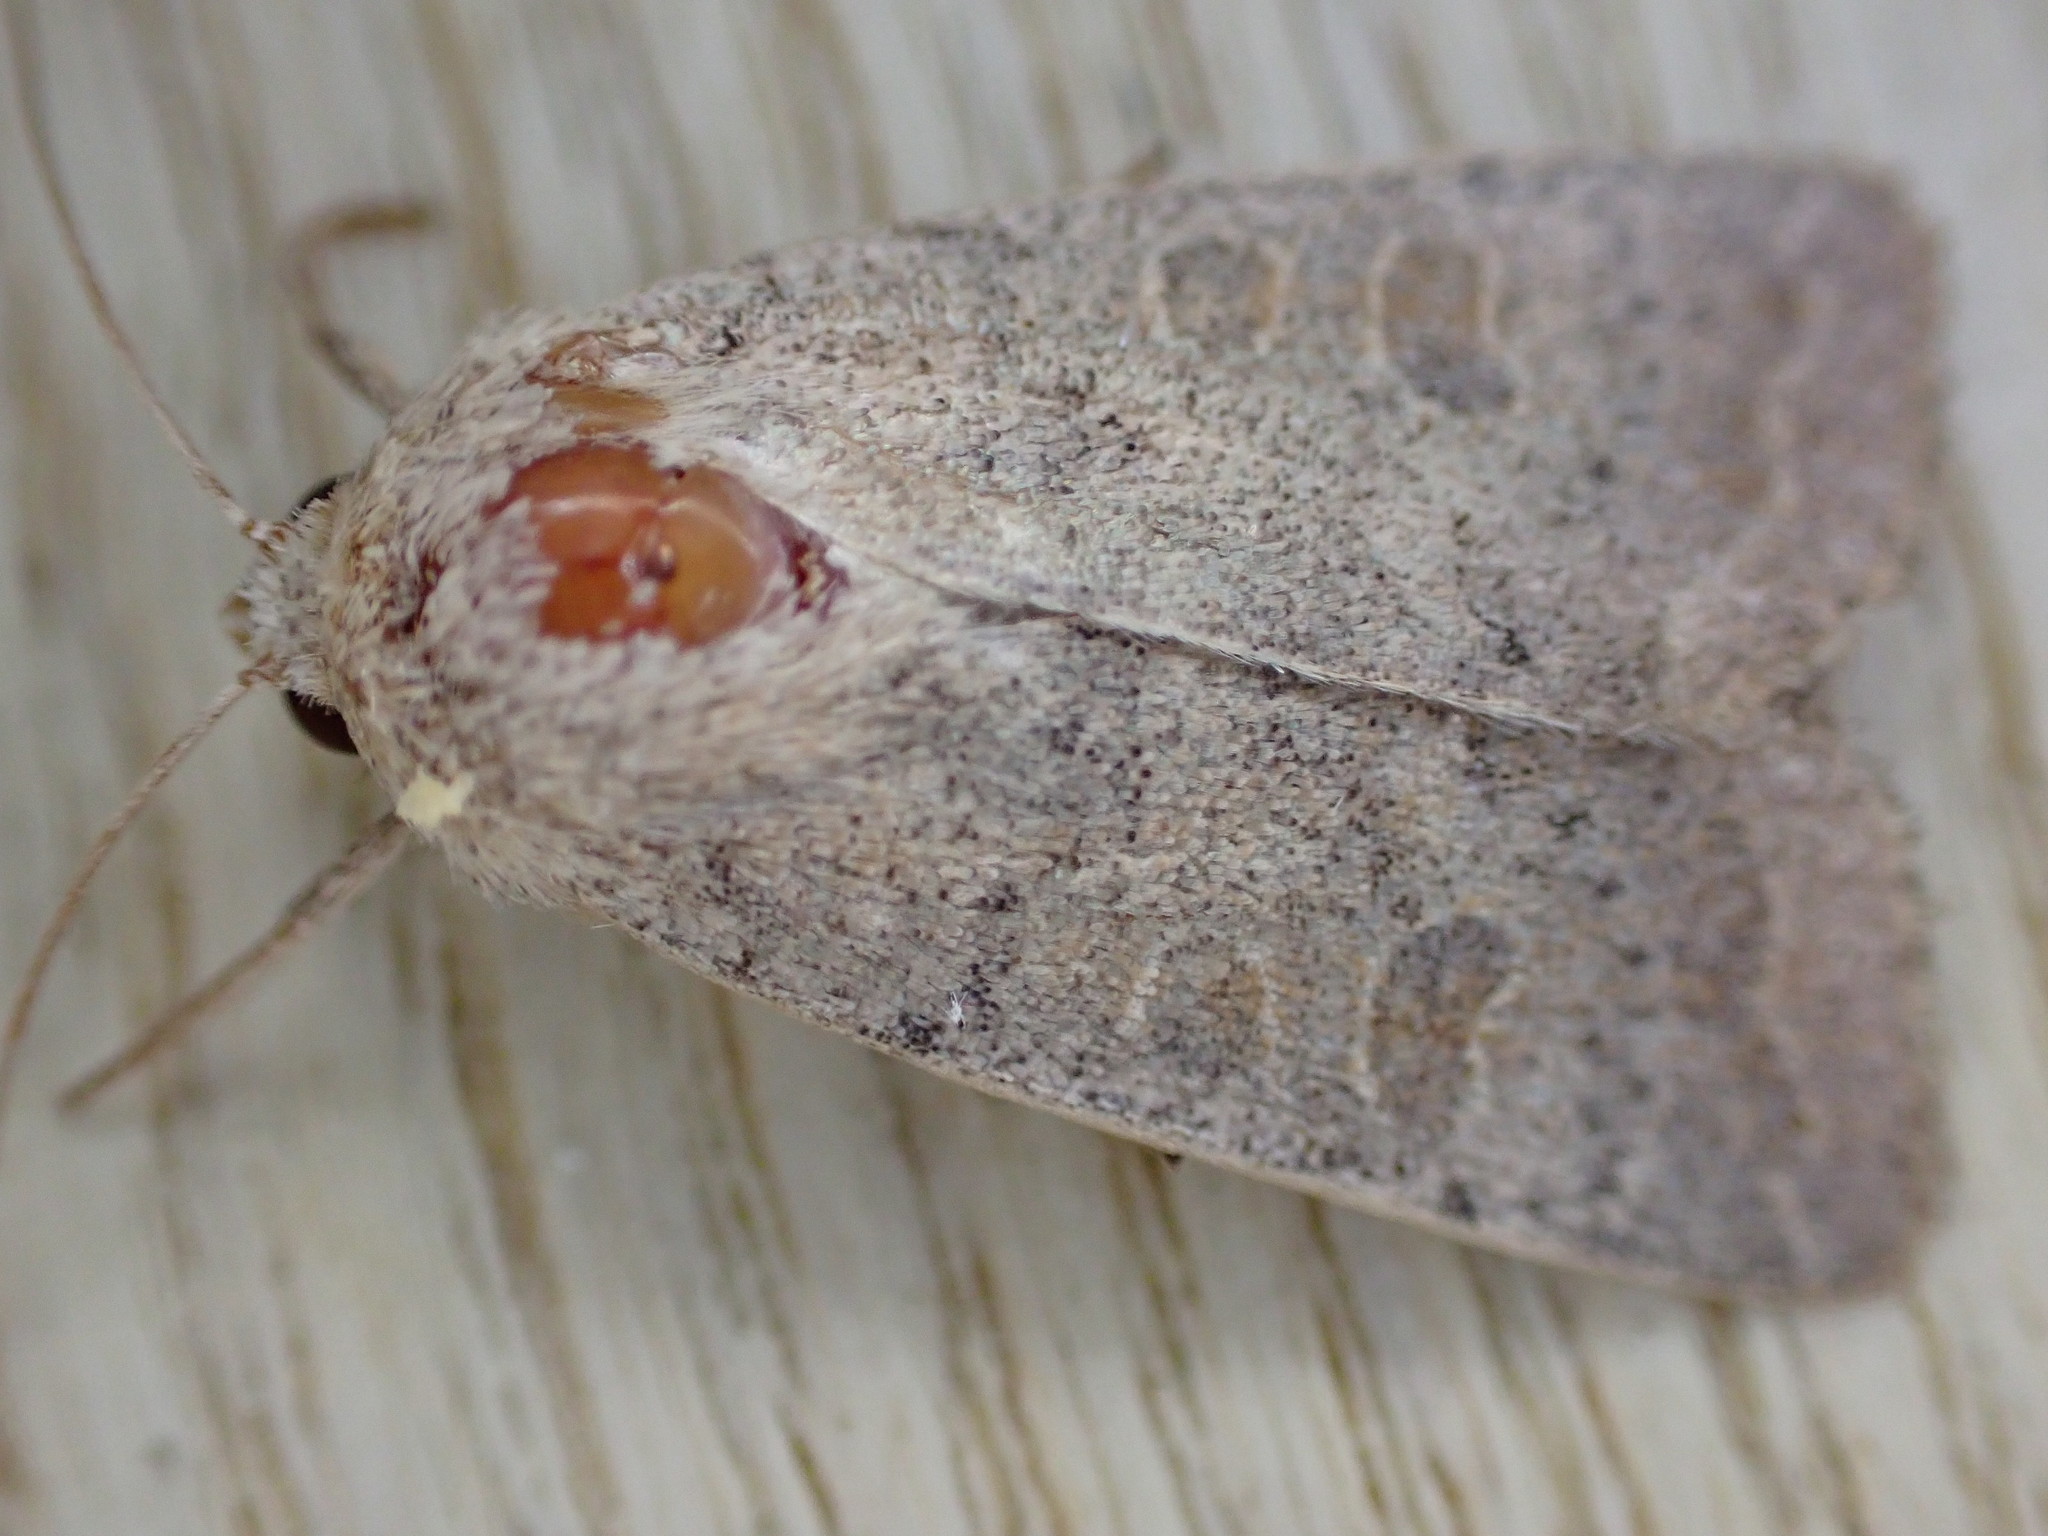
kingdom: Animalia
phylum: Arthropoda
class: Insecta
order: Lepidoptera
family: Noctuidae
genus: Hoplodrina
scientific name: Hoplodrina ambigua
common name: Vine's rustic
